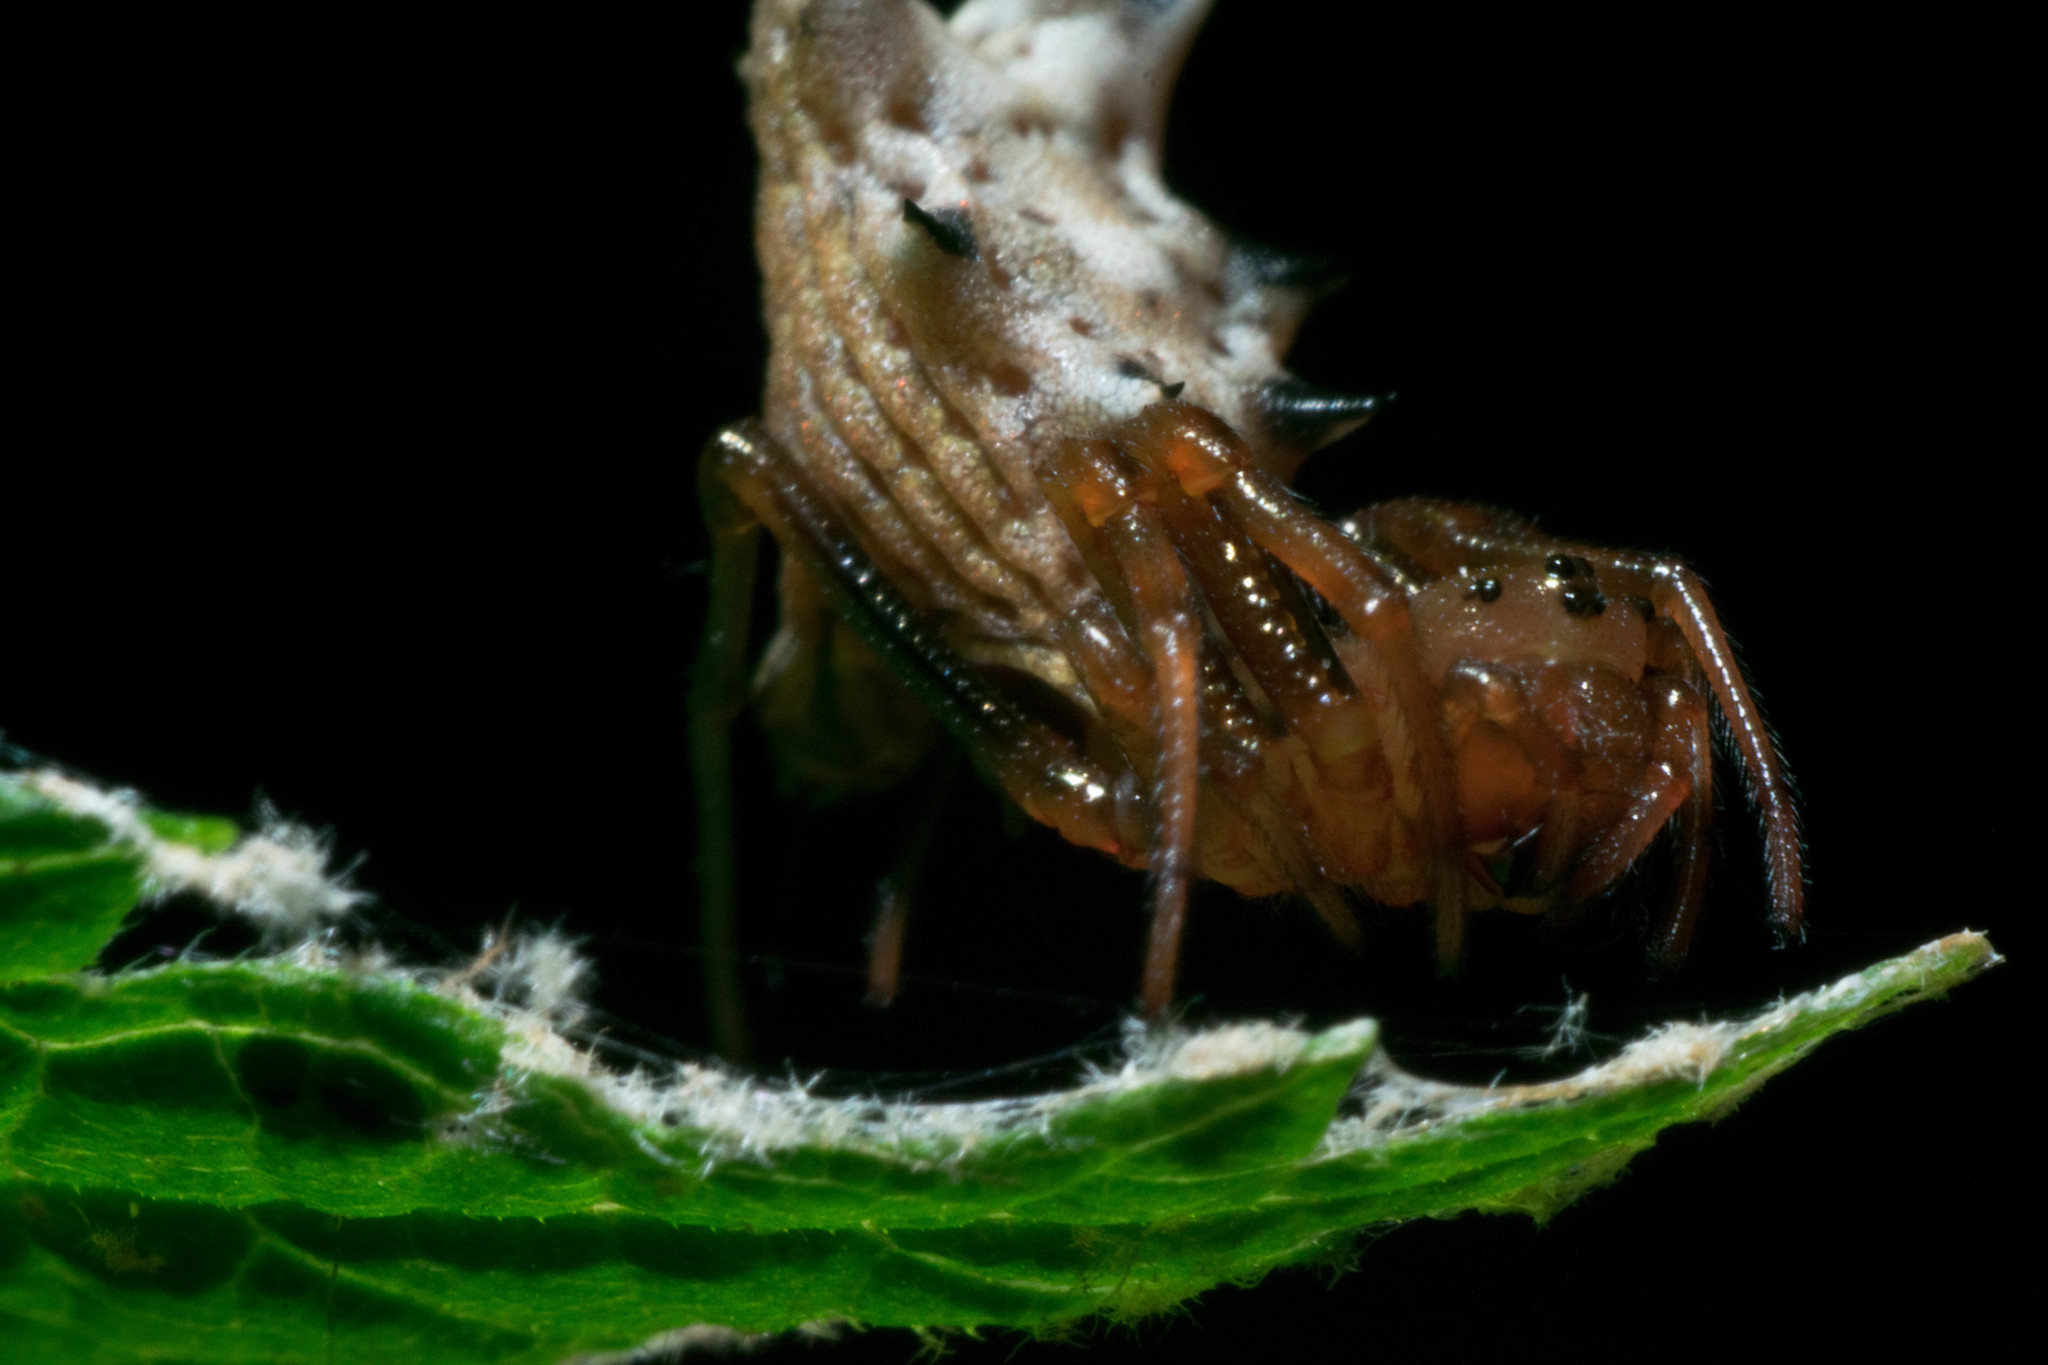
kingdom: Animalia
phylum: Arthropoda
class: Arachnida
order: Araneae
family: Araneidae
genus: Micrathena
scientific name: Micrathena gracilis
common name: Orb weavers
